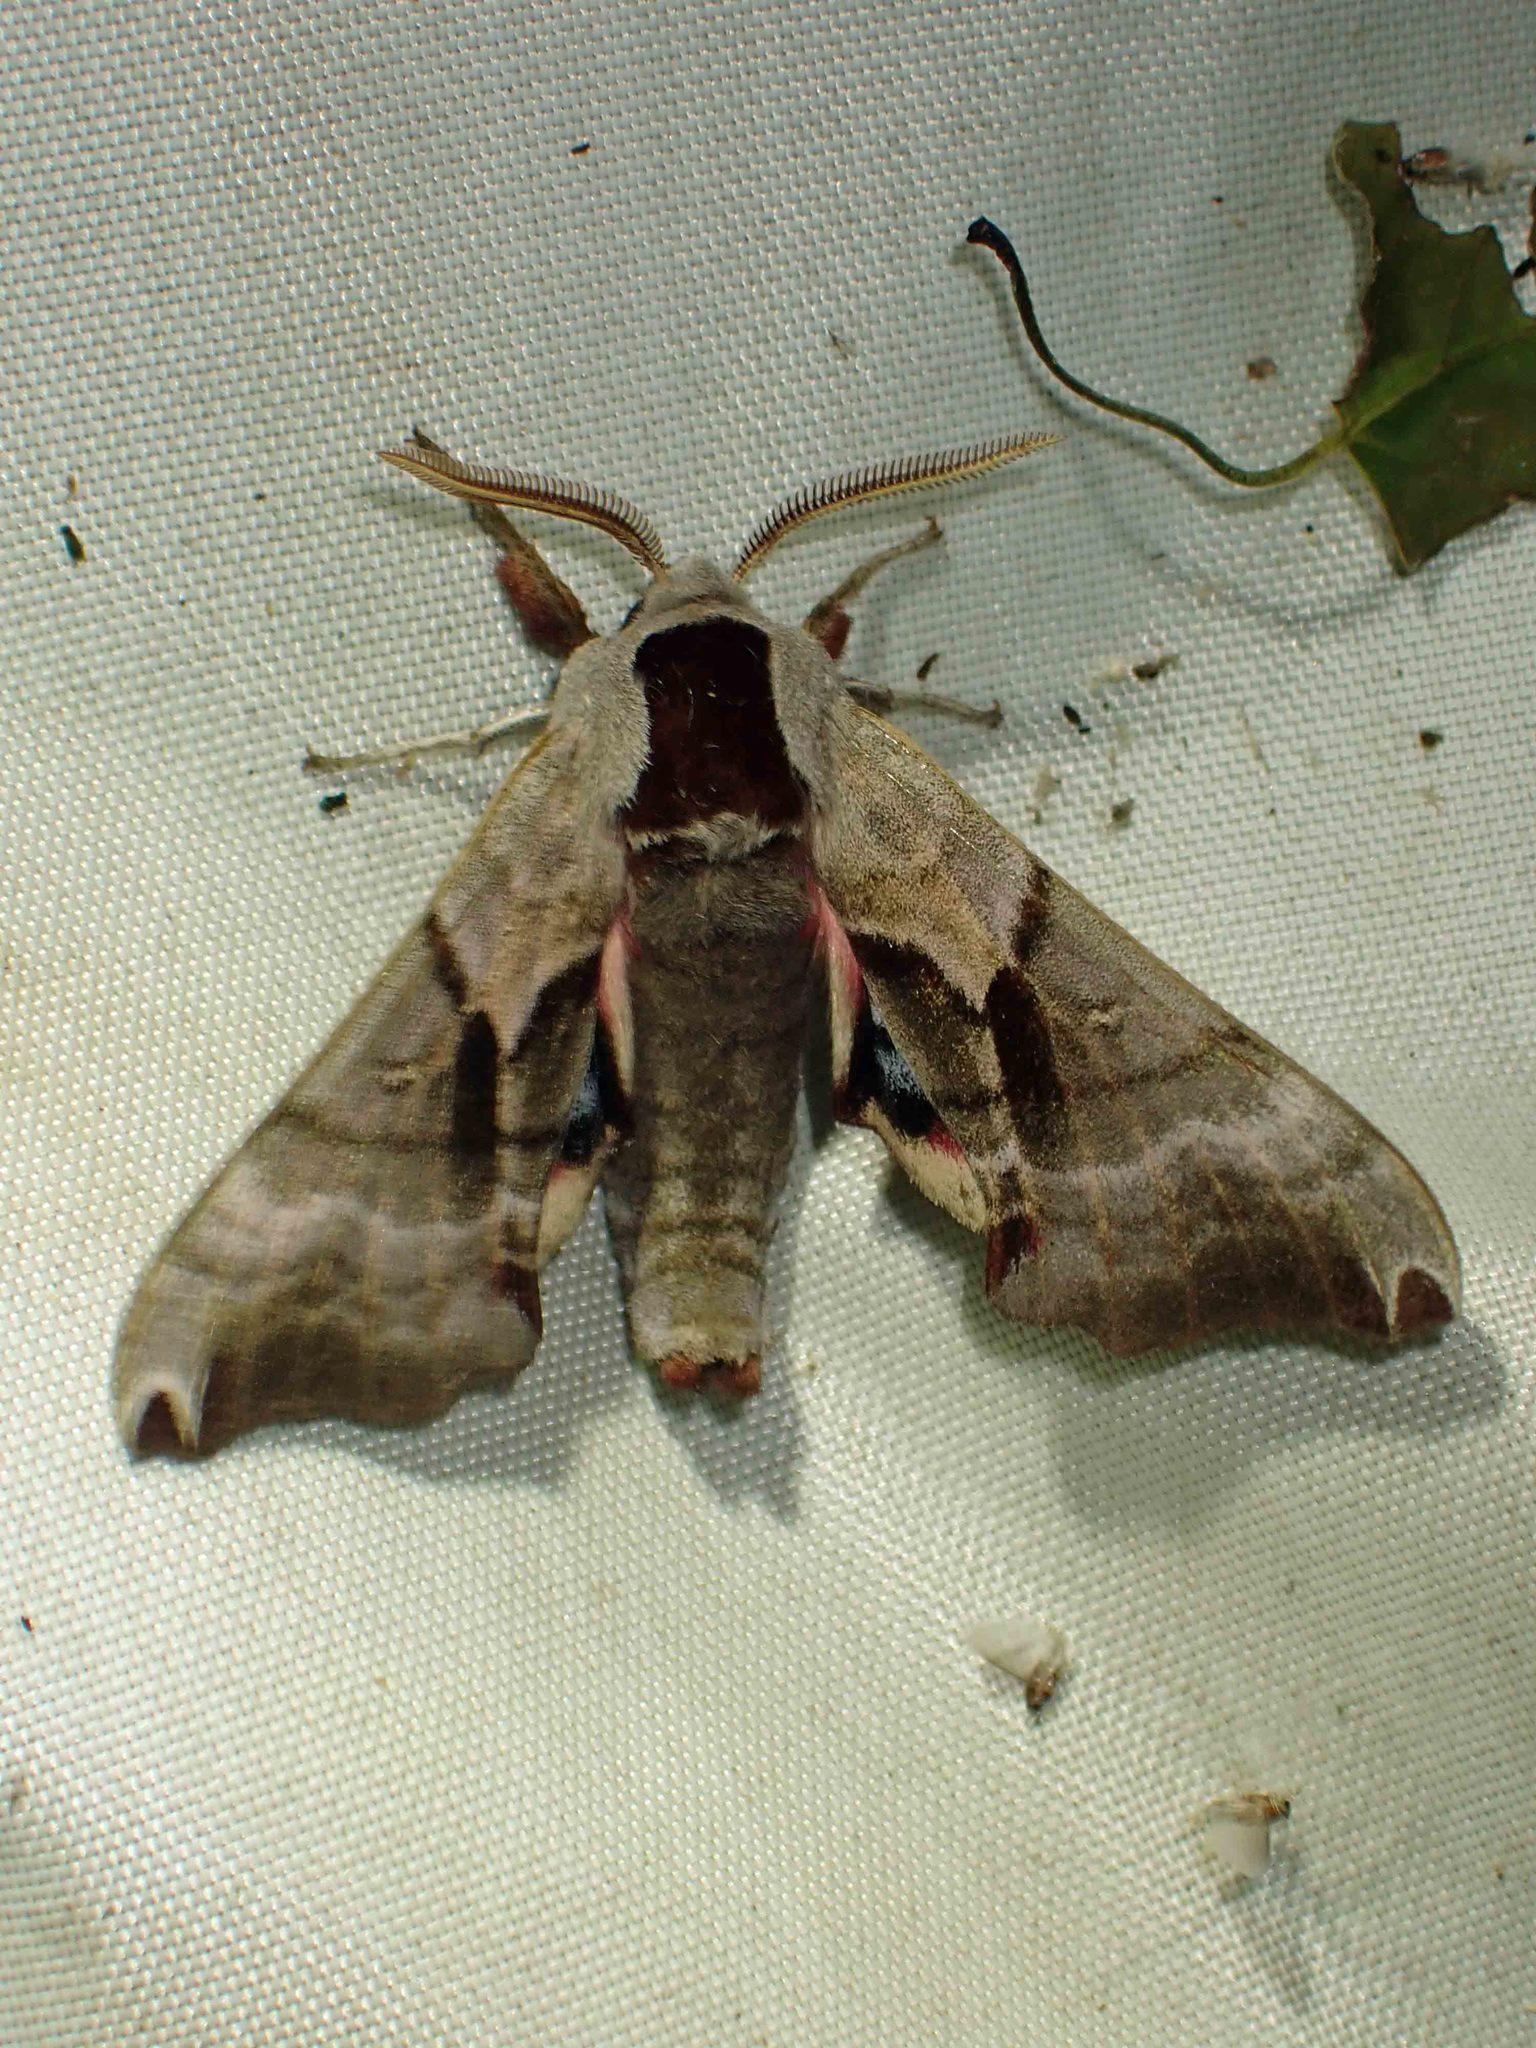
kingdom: Animalia
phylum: Arthropoda
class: Insecta
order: Lepidoptera
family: Sphingidae
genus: Smerinthus
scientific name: Smerinthus jamaicensis
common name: Twin spotted sphinx
